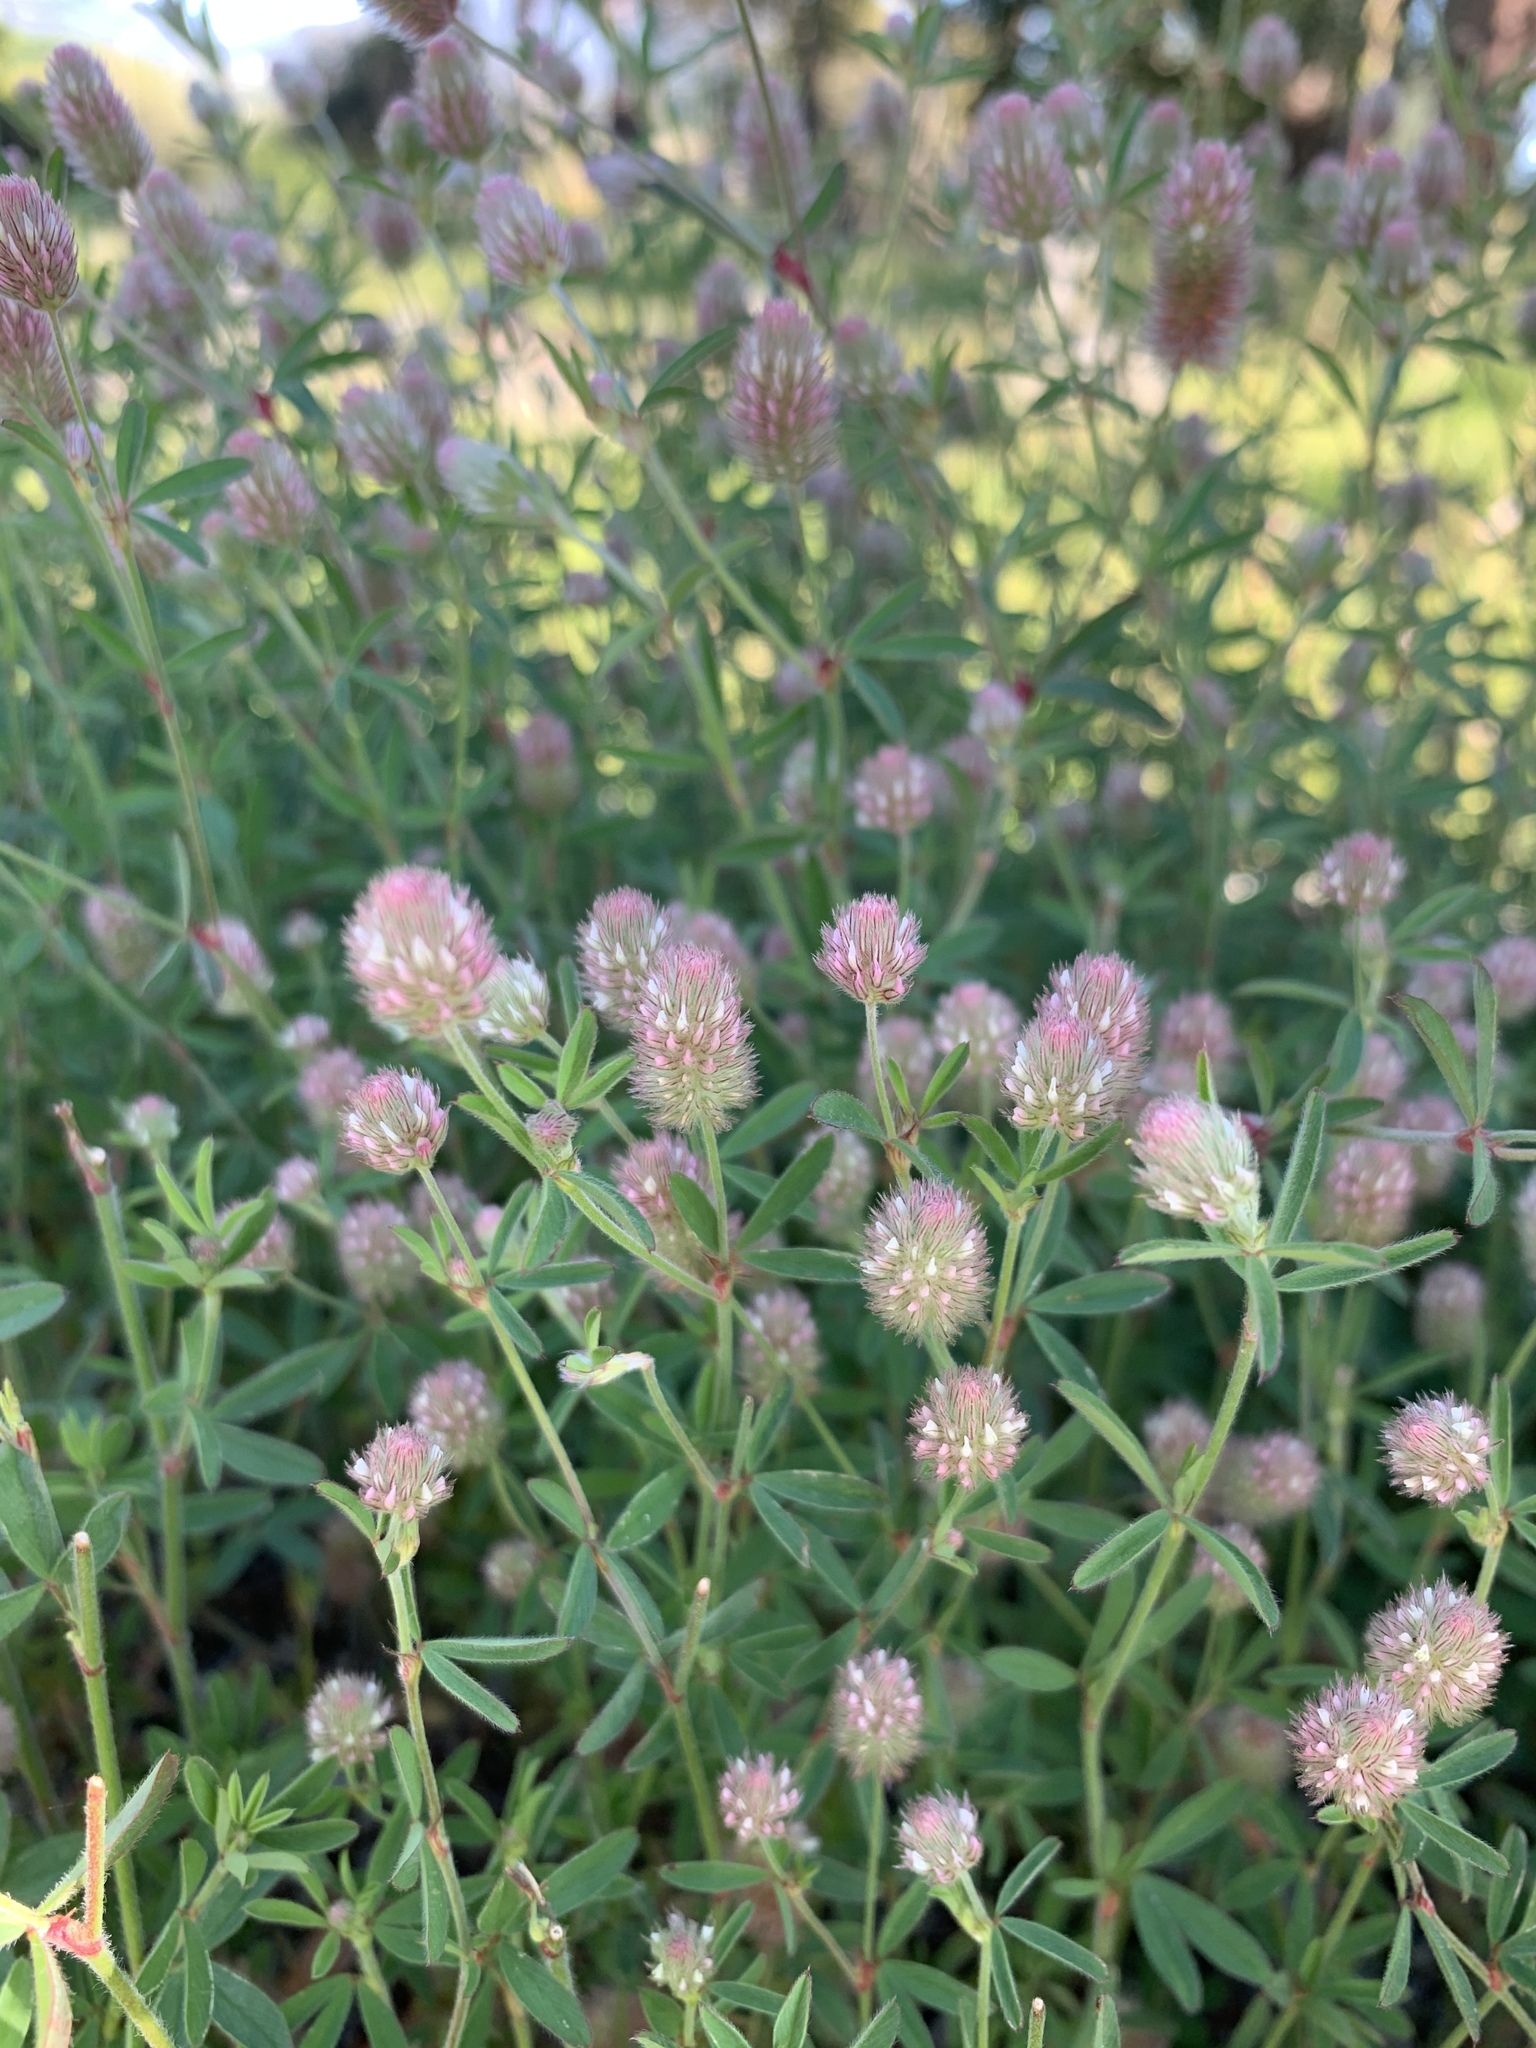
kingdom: Plantae
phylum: Tracheophyta
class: Magnoliopsida
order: Fabales
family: Fabaceae
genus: Trifolium
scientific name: Trifolium arvense
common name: Hare's-foot clover
